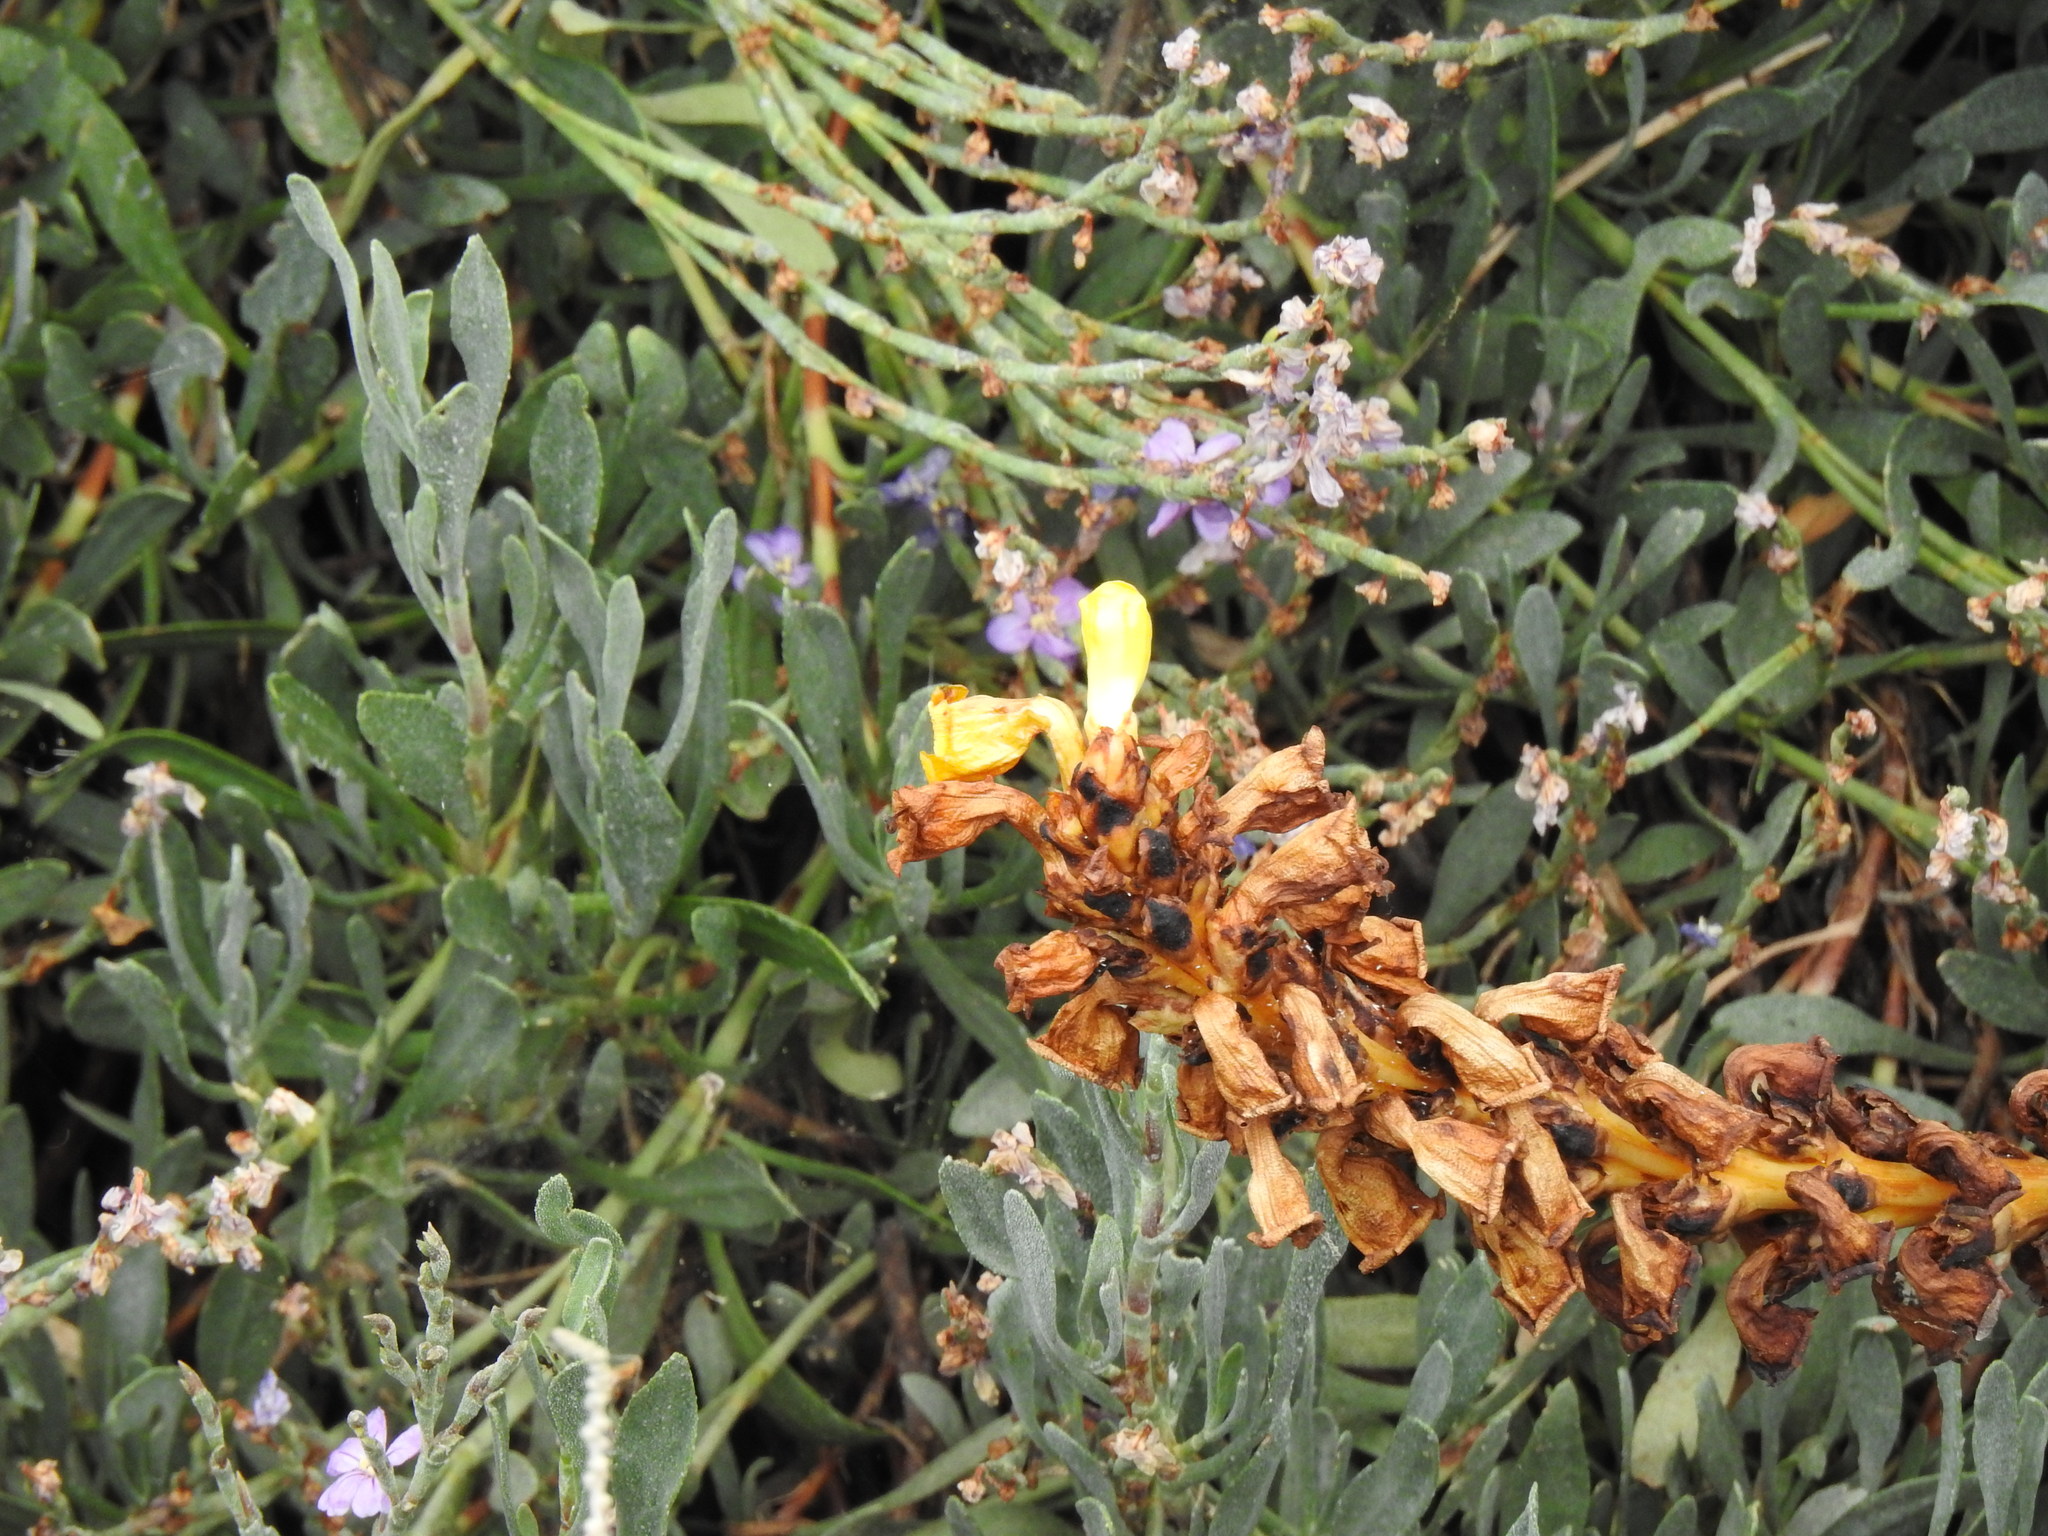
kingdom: Plantae
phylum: Tracheophyta
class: Magnoliopsida
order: Lamiales
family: Orobanchaceae
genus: Cistanche
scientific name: Cistanche phelypaea
